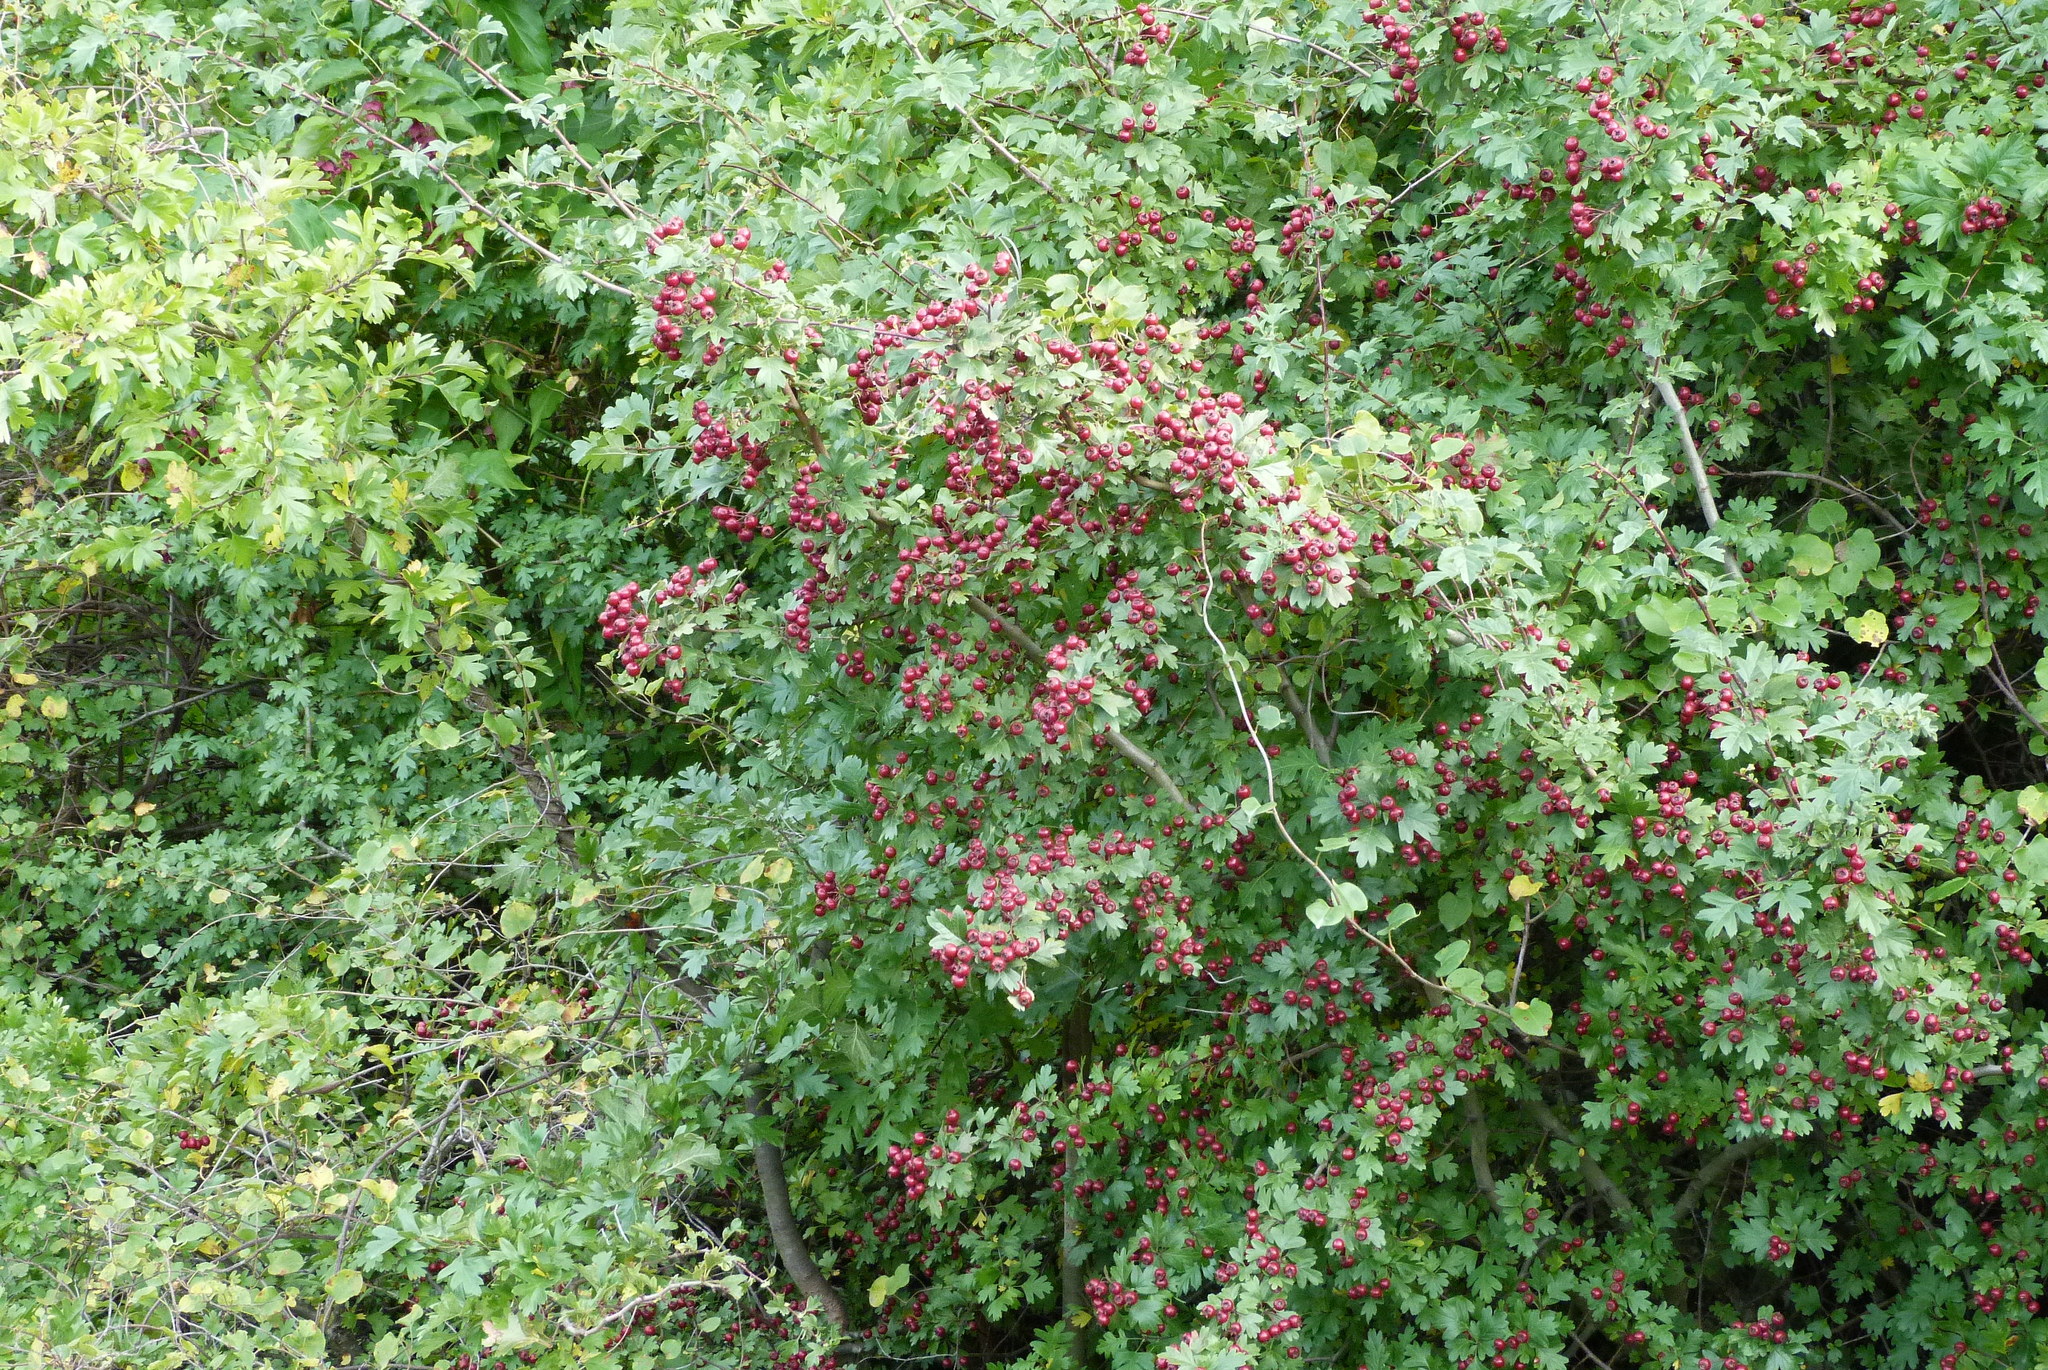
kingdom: Plantae
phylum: Tracheophyta
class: Magnoliopsida
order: Rosales
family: Rosaceae
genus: Crataegus
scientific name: Crataegus monogyna
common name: Hawthorn
